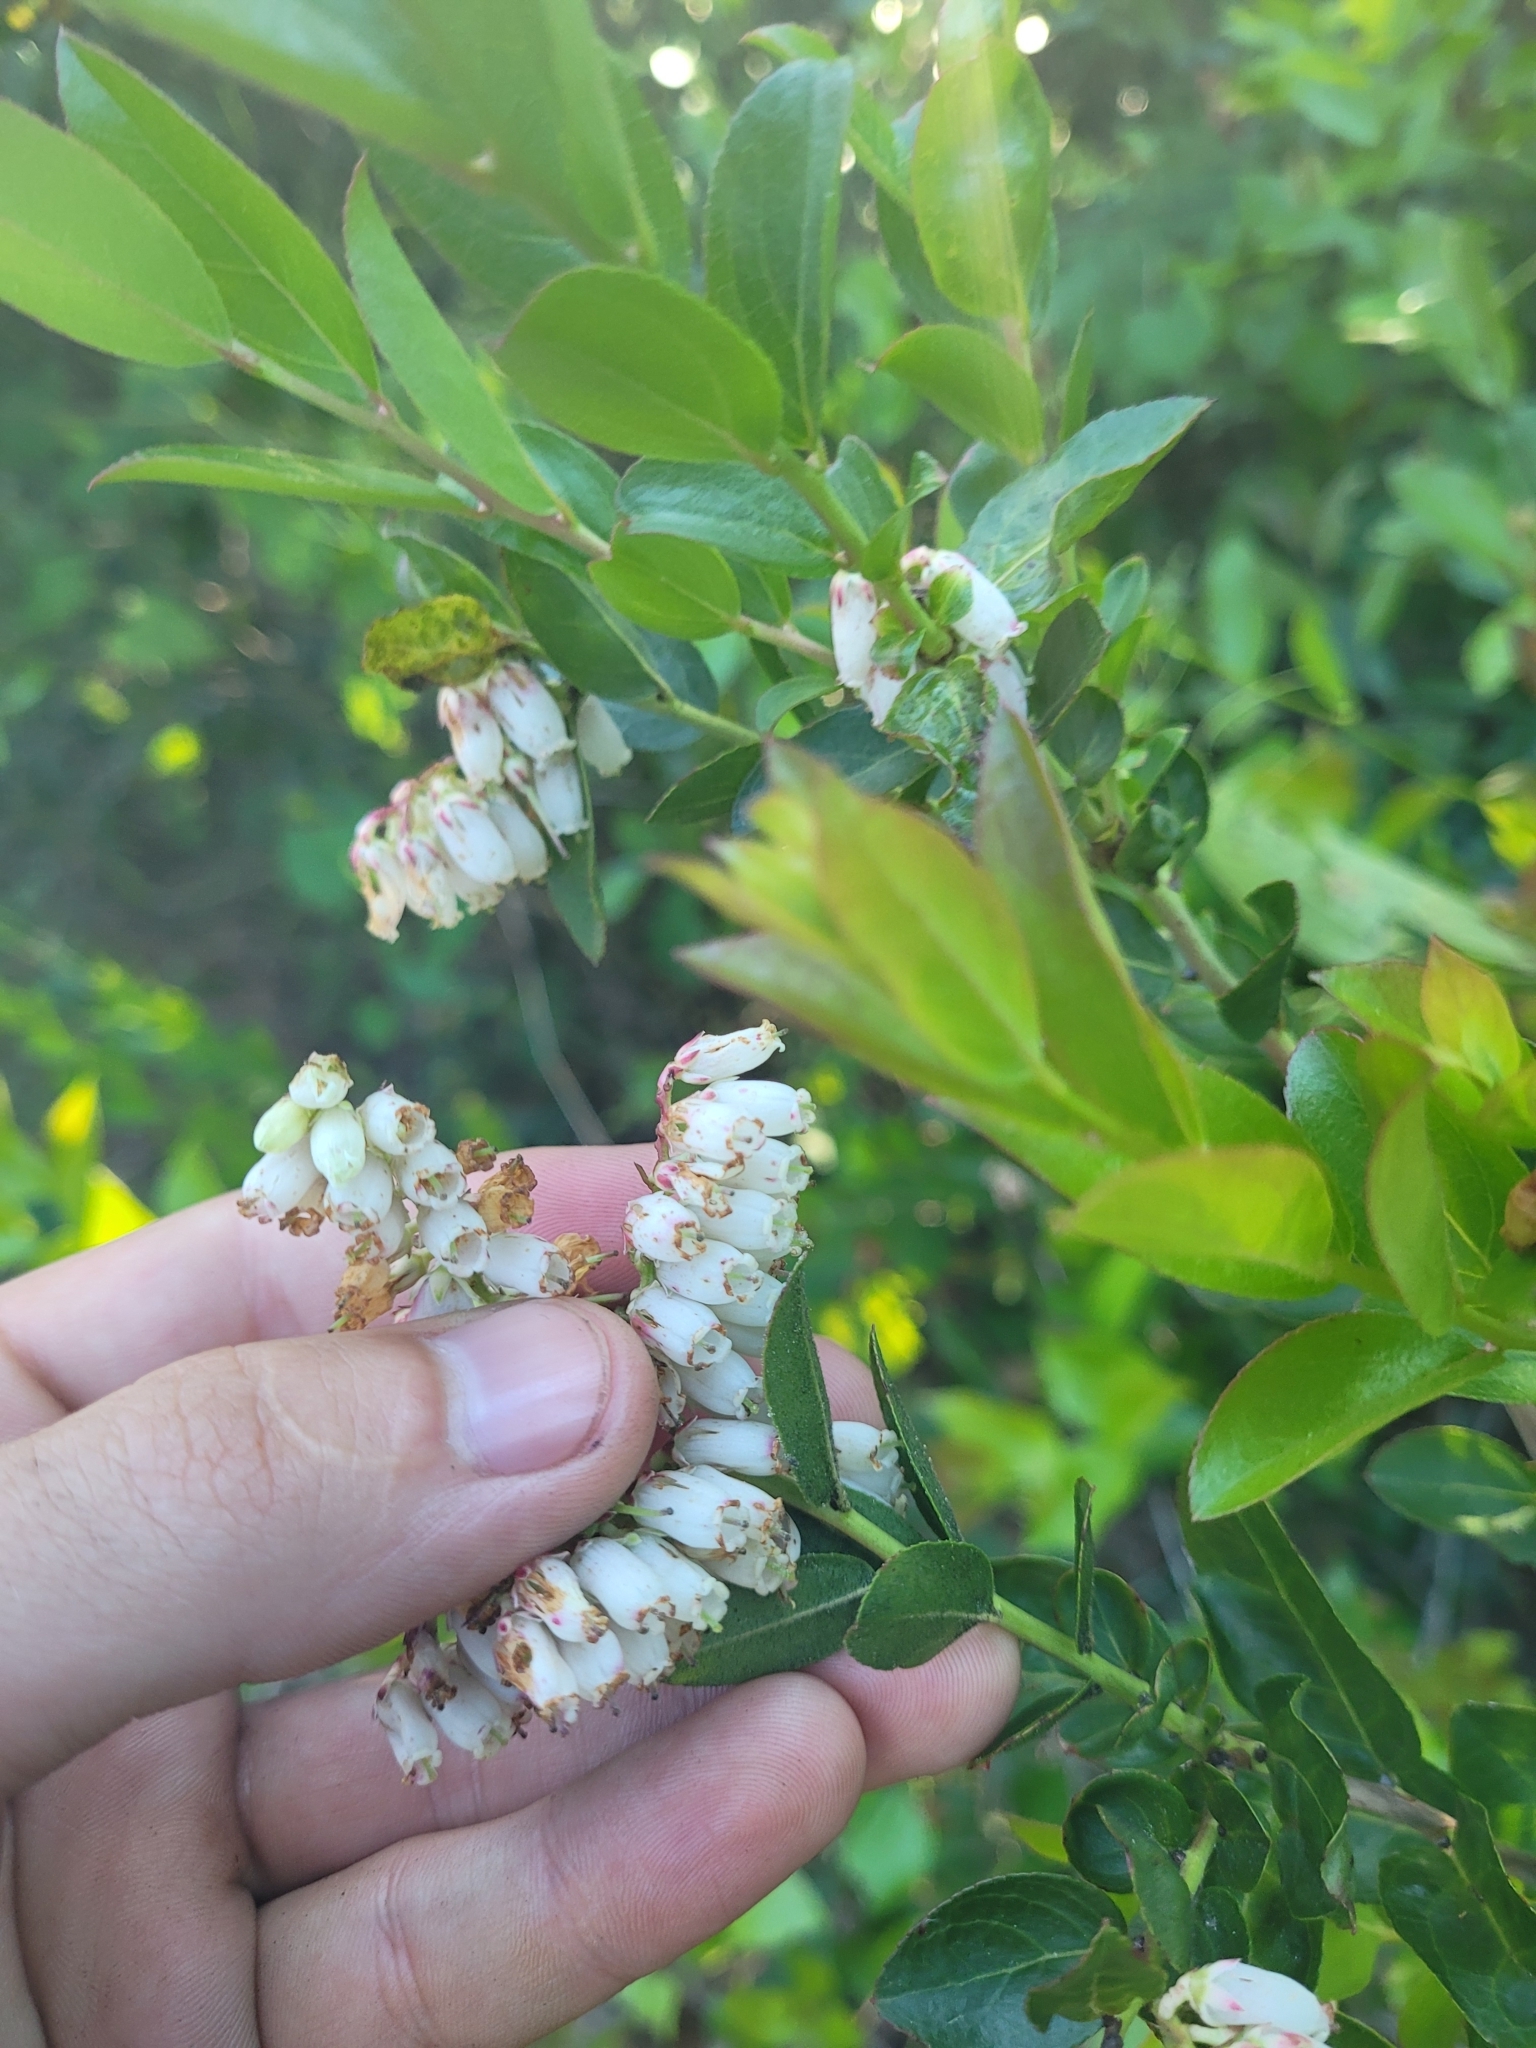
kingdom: Plantae
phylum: Tracheophyta
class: Magnoliopsida
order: Ericales
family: Ericaceae
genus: Eubotrys
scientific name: Eubotrys racemosa
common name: Fetterbush
